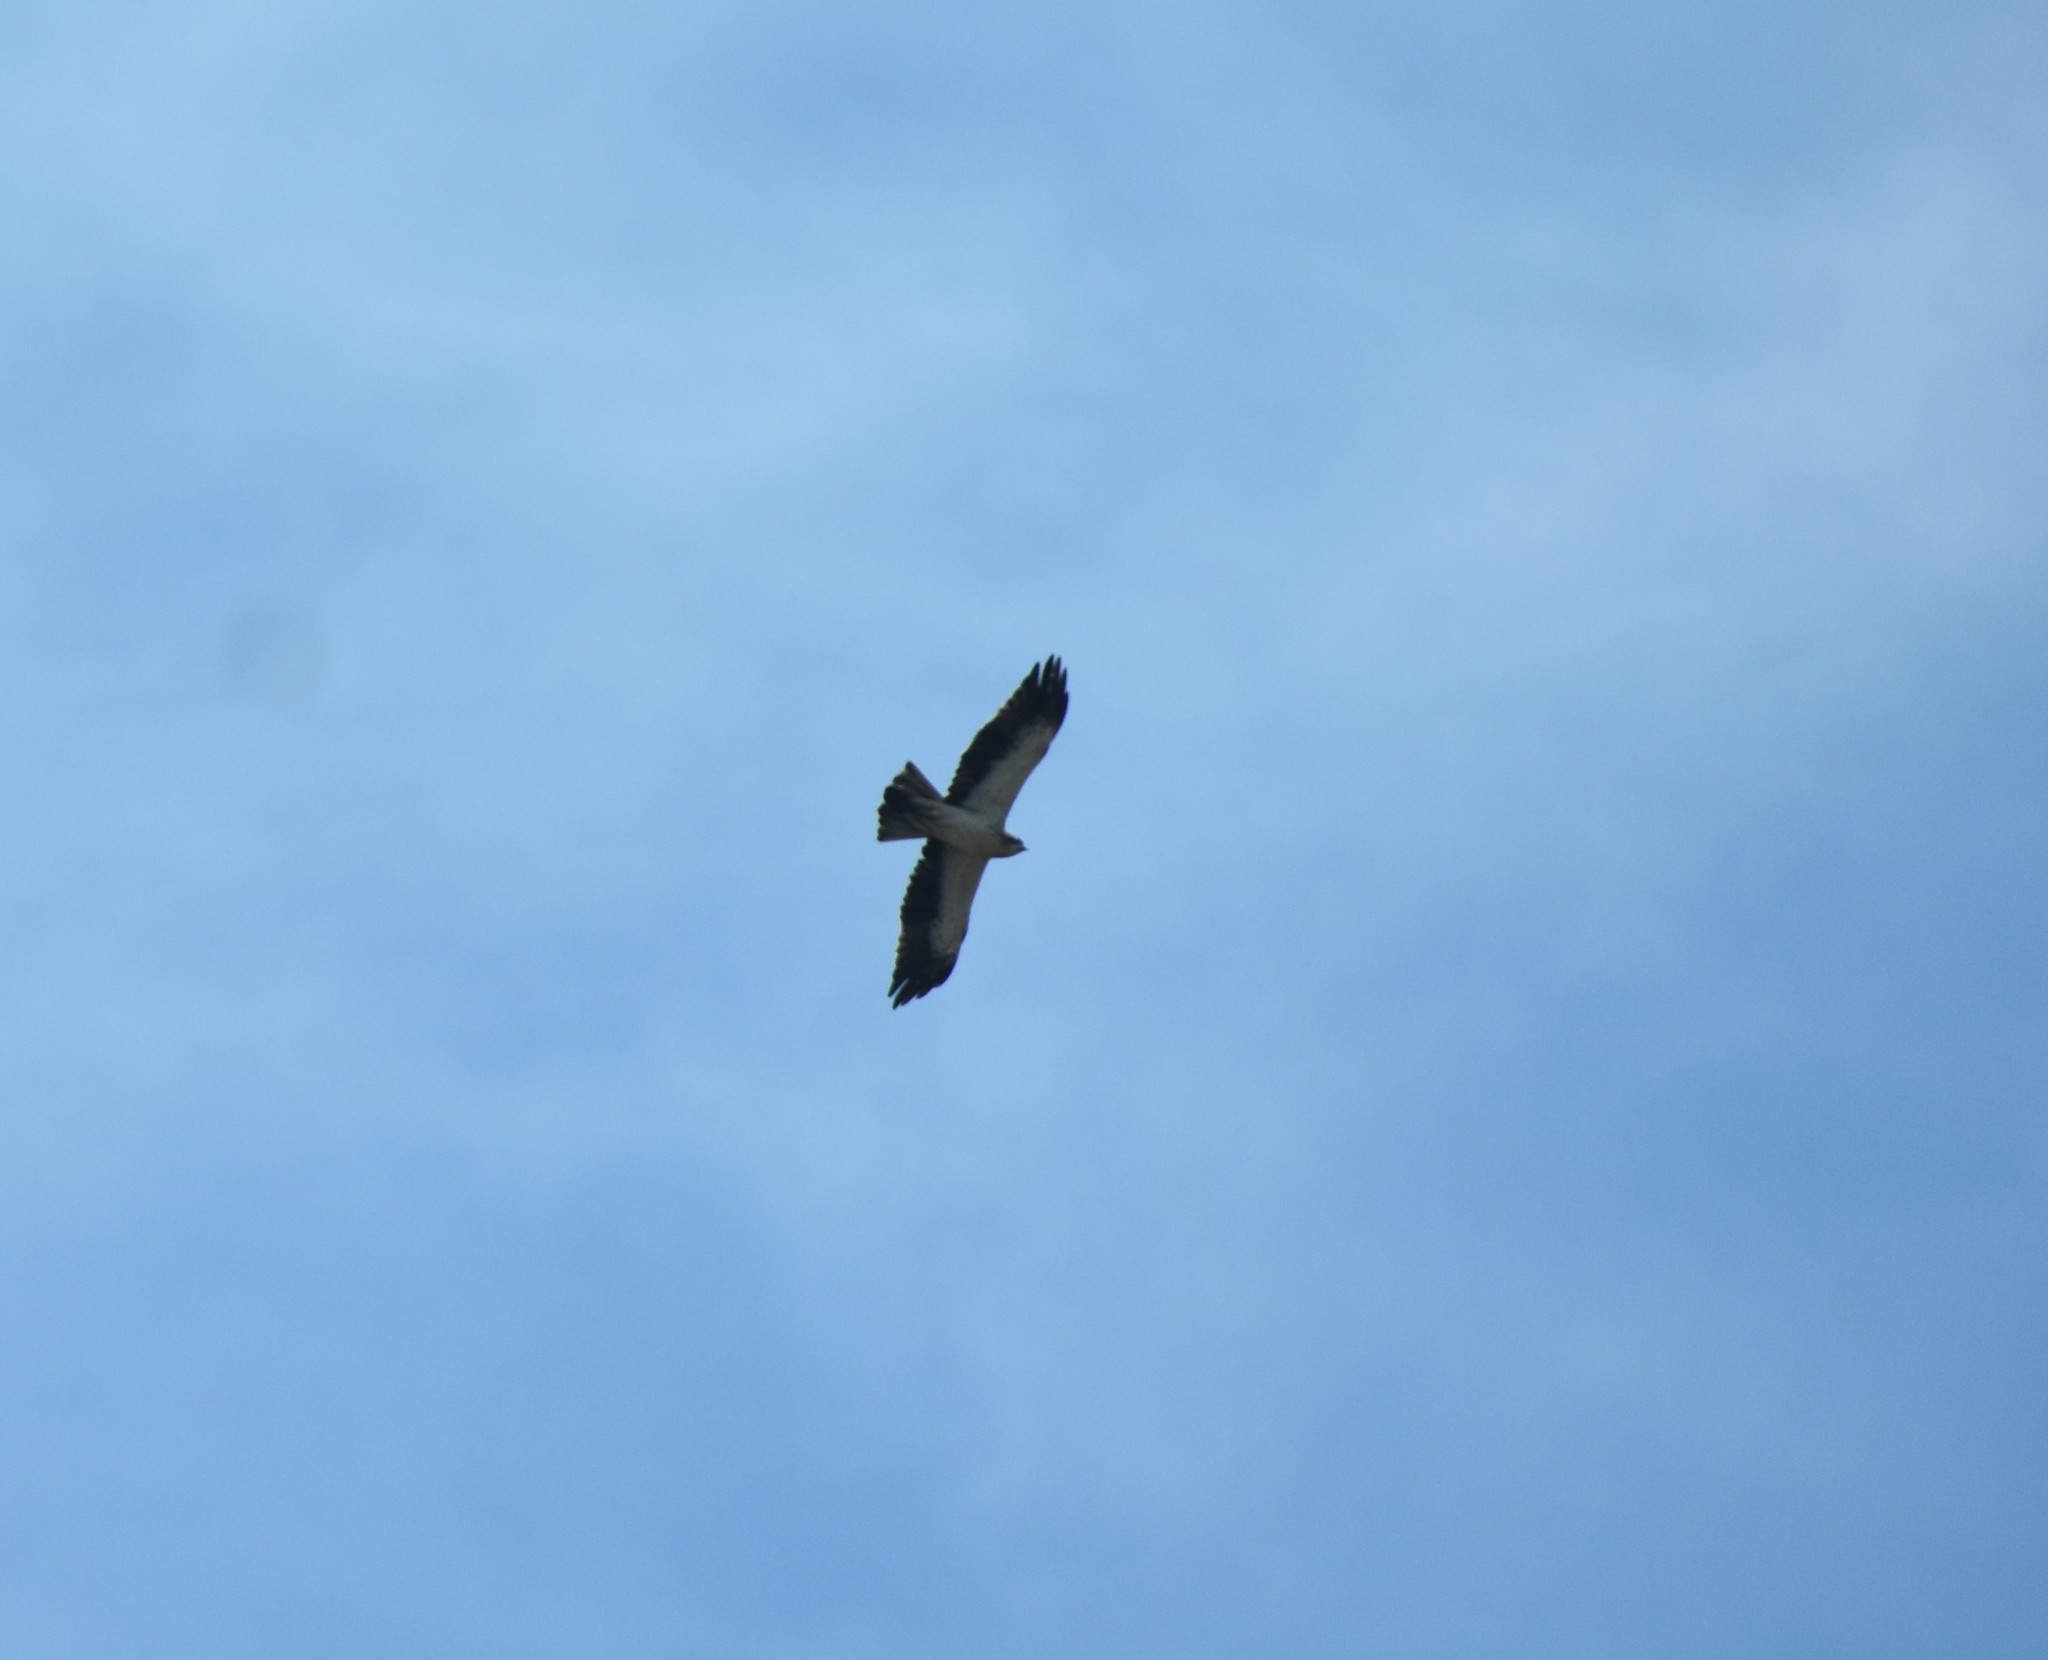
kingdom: Animalia
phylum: Chordata
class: Aves
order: Accipitriformes
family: Accipitridae
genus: Hieraaetus
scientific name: Hieraaetus pennatus
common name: Booted eagle
